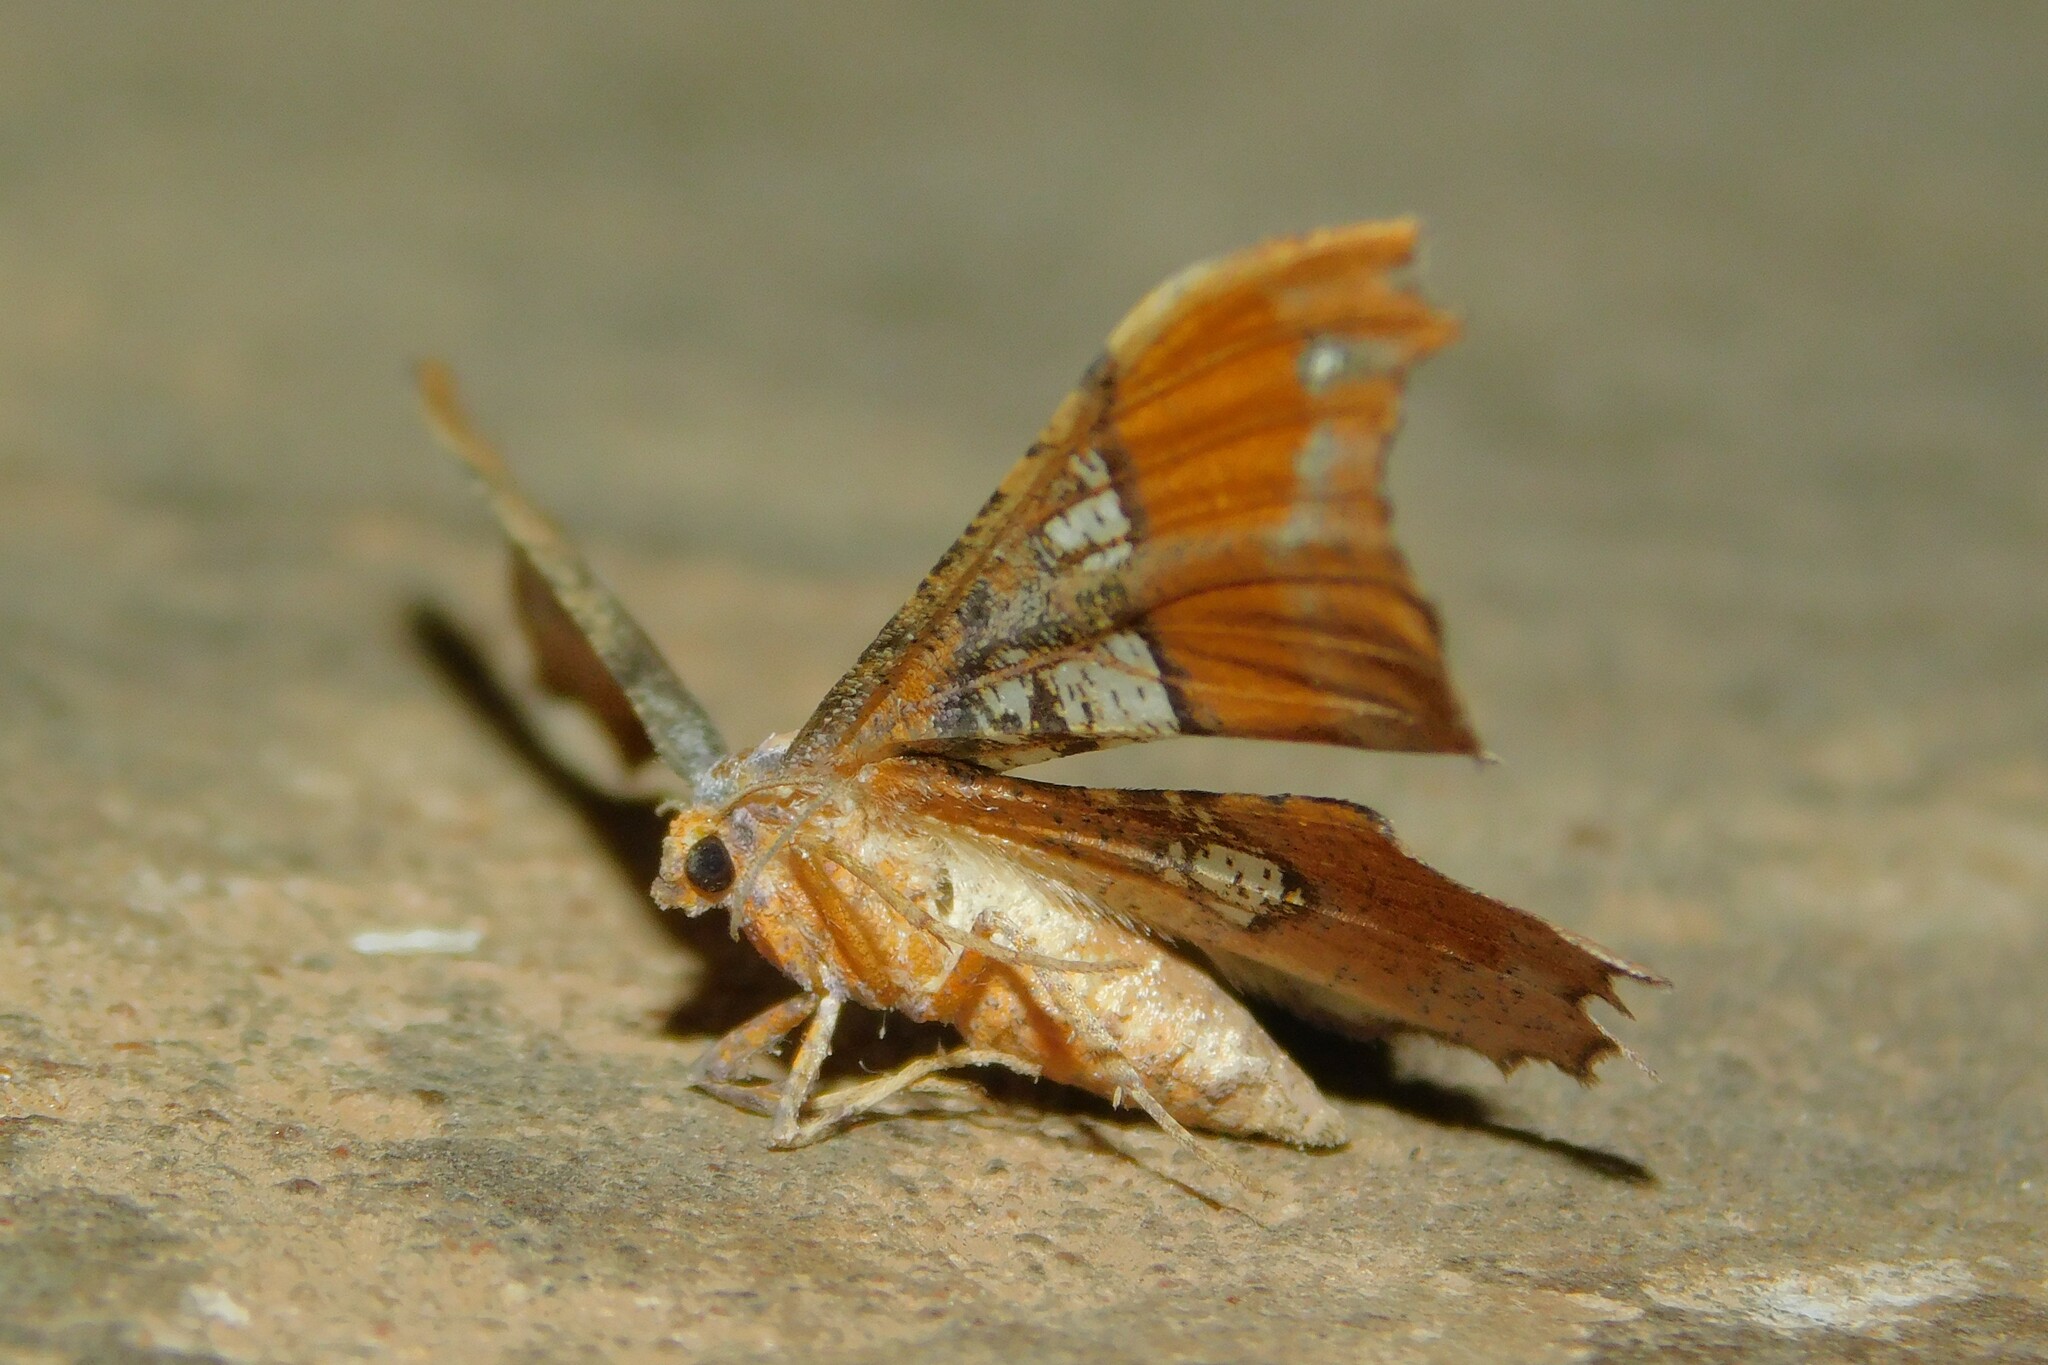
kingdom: Animalia
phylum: Arthropoda
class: Insecta
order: Lepidoptera
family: Geometridae
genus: Xenimpia
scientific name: Xenimpia erosa
